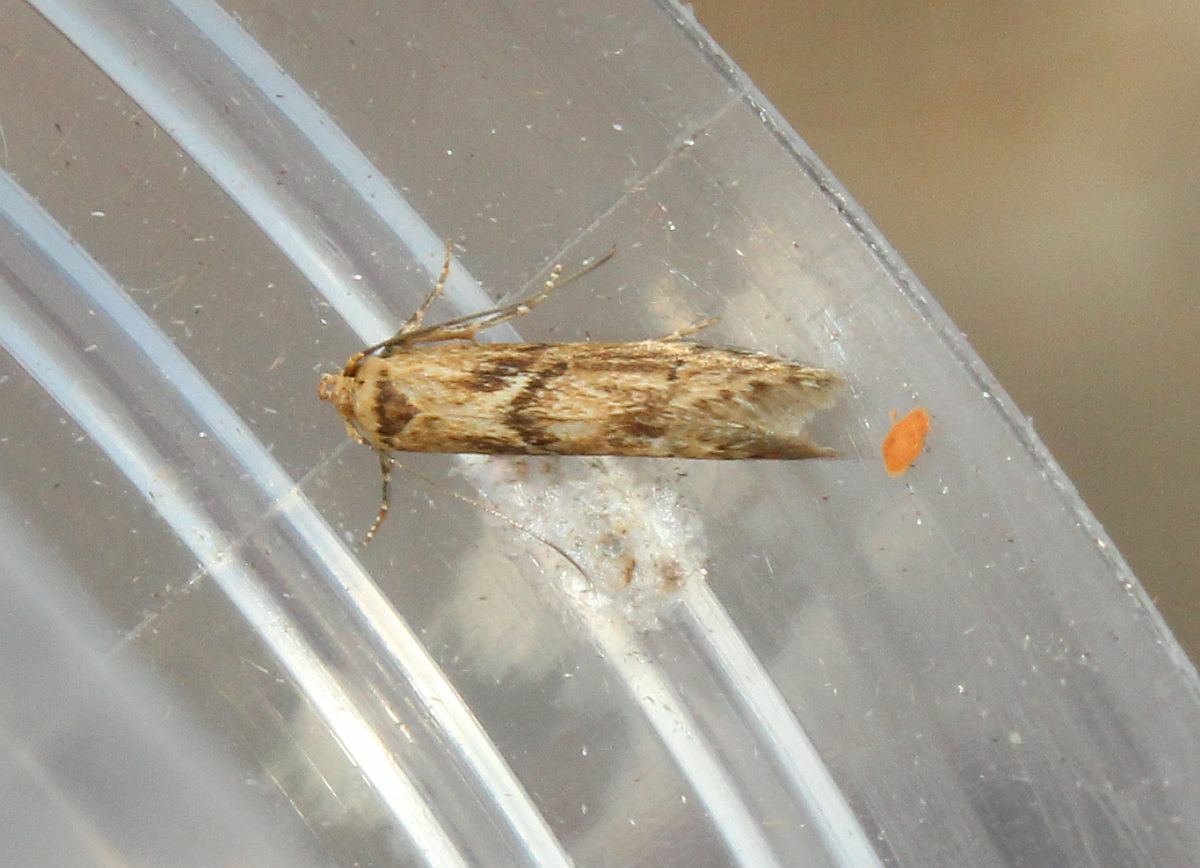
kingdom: Animalia
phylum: Arthropoda
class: Insecta
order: Lepidoptera
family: Blastobasidae
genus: Blastobasis
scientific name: Blastobasis adustella
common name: Dingy dowd
